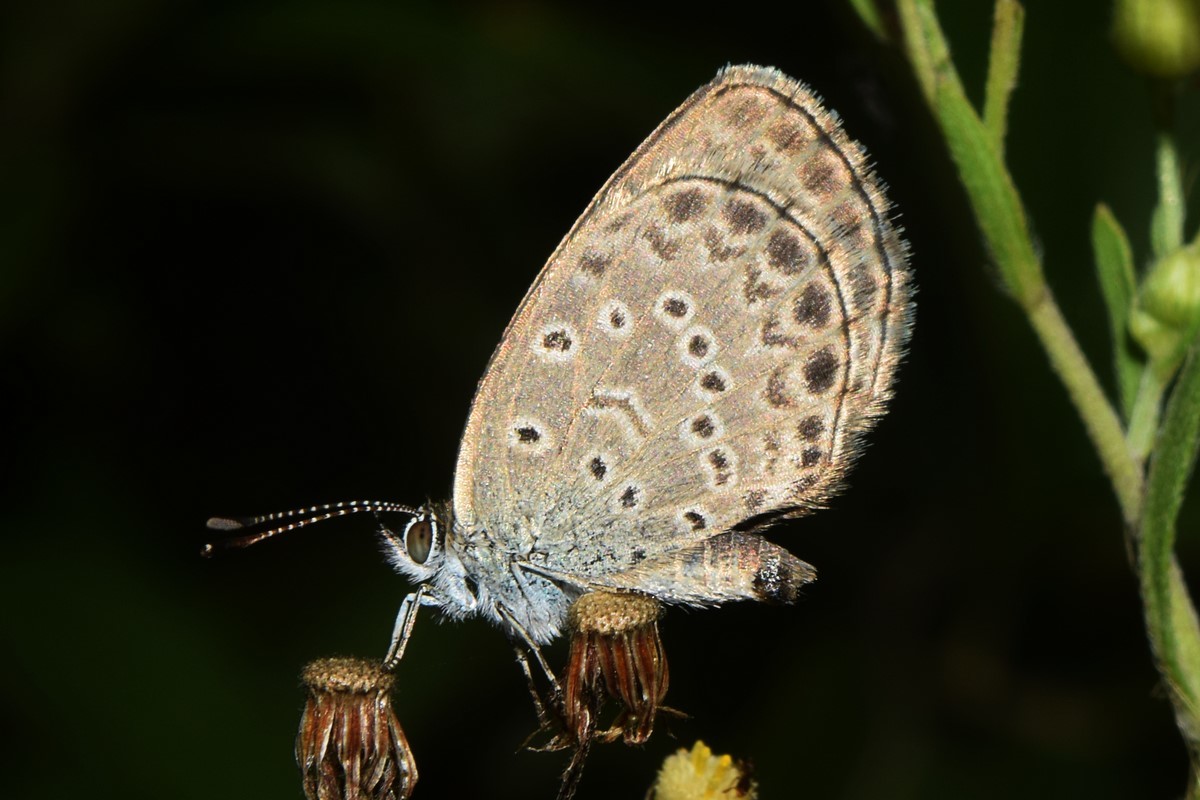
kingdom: Animalia
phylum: Arthropoda
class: Insecta
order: Lepidoptera
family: Lycaenidae
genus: Pseudozizeeria
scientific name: Pseudozizeeria maha
